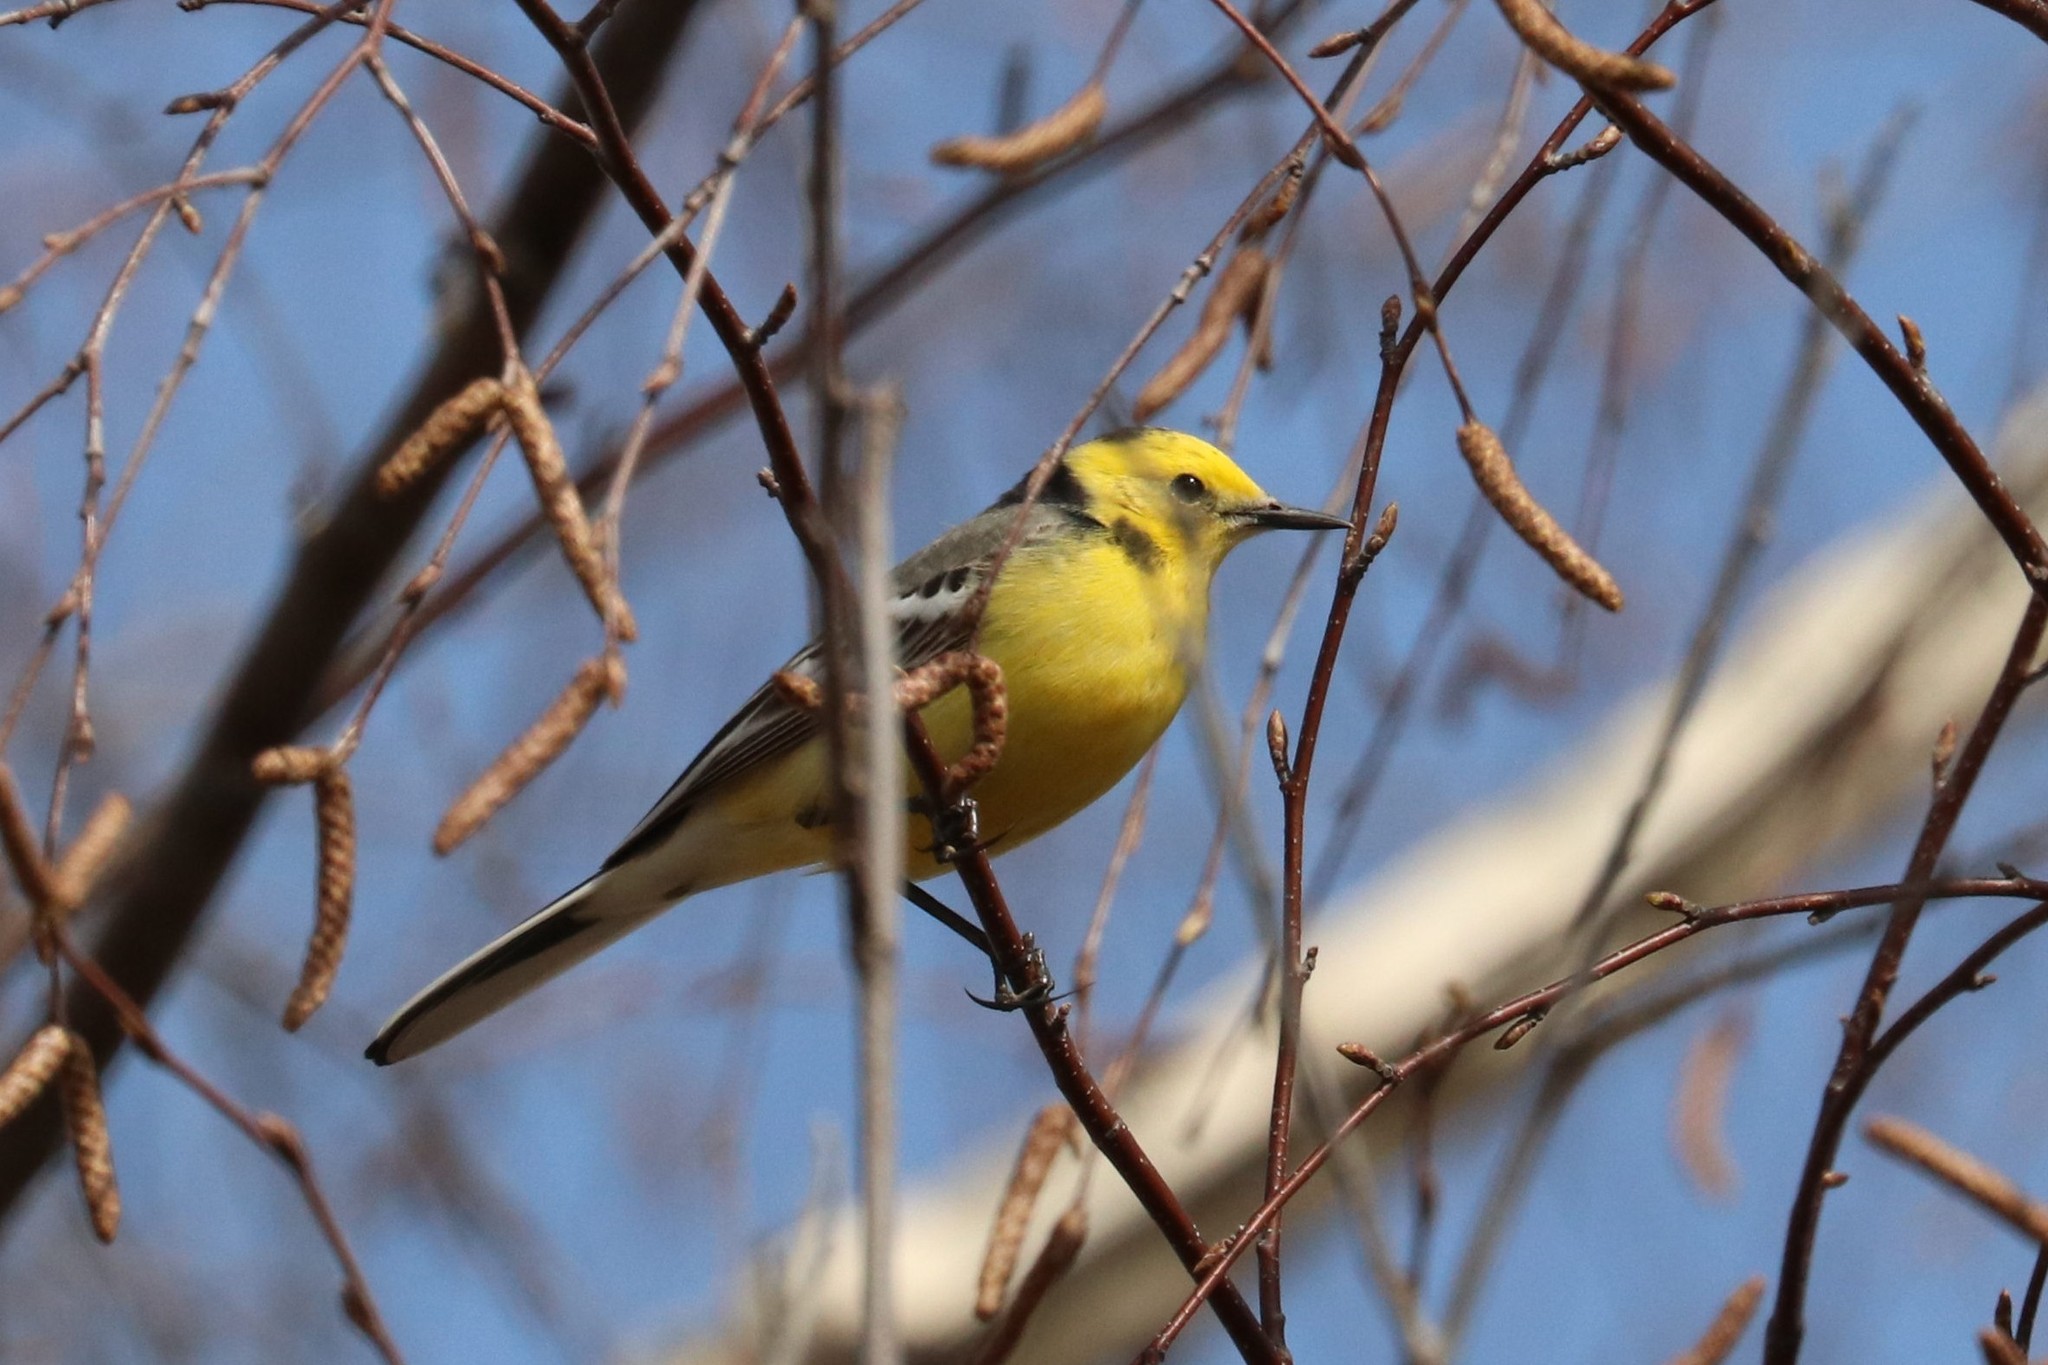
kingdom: Animalia
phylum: Chordata
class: Aves
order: Passeriformes
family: Motacillidae
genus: Motacilla
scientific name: Motacilla citreola
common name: Citrine wagtail
